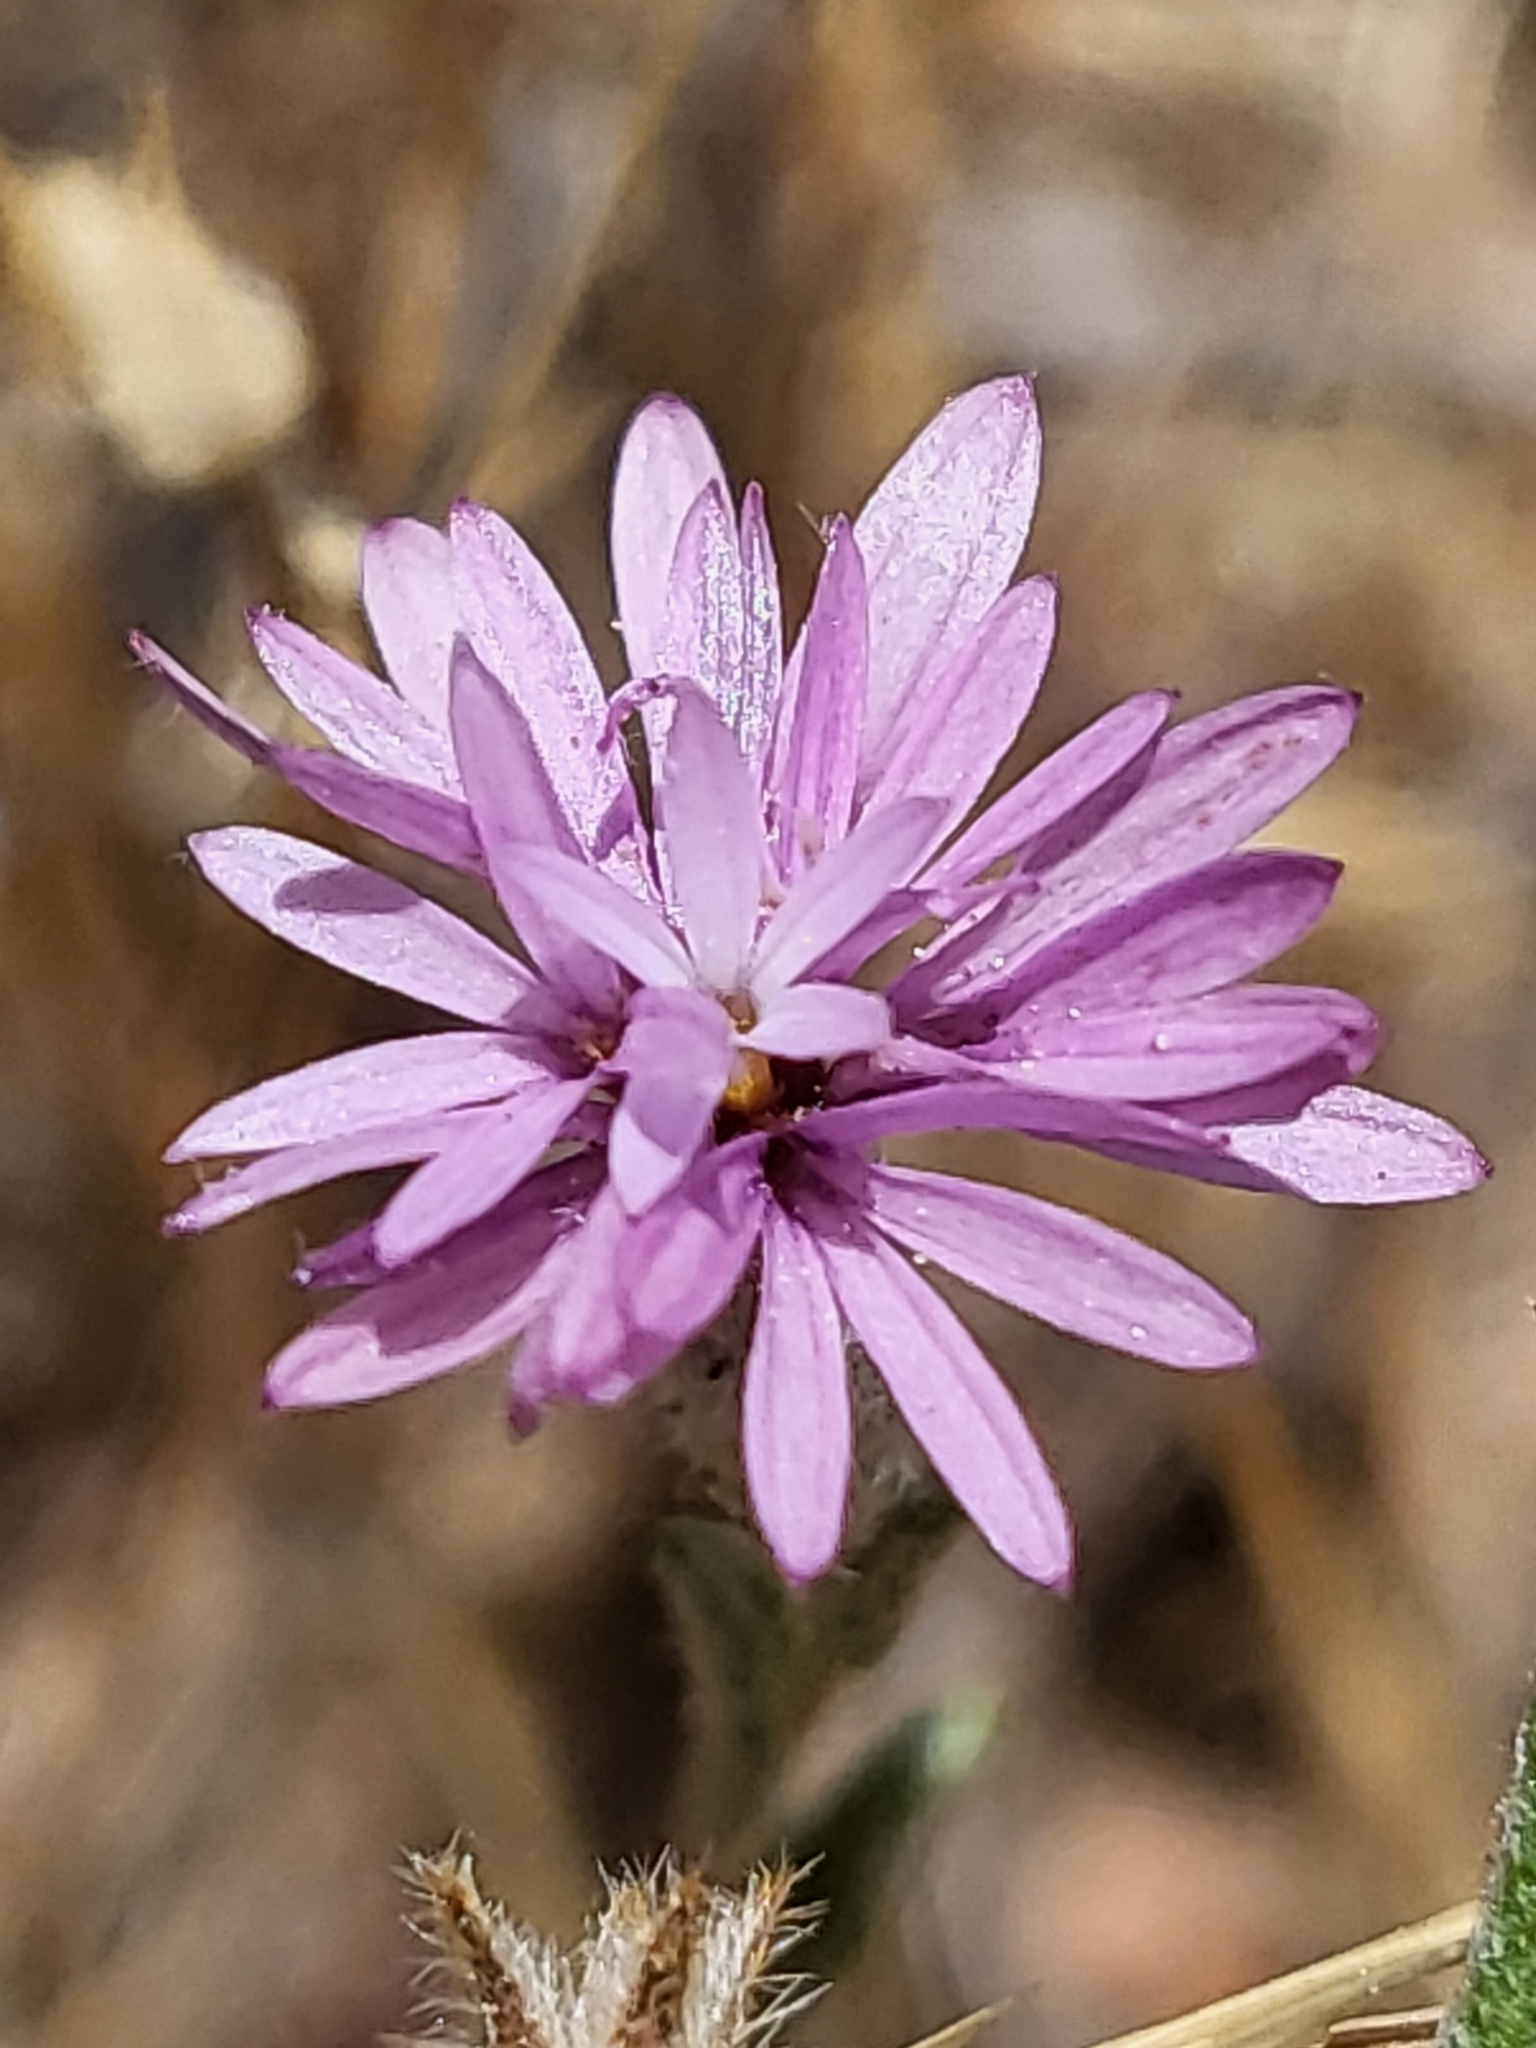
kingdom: Plantae
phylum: Tracheophyta
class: Magnoliopsida
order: Asterales
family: Asteraceae
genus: Lessingia
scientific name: Lessingia leptoclada
